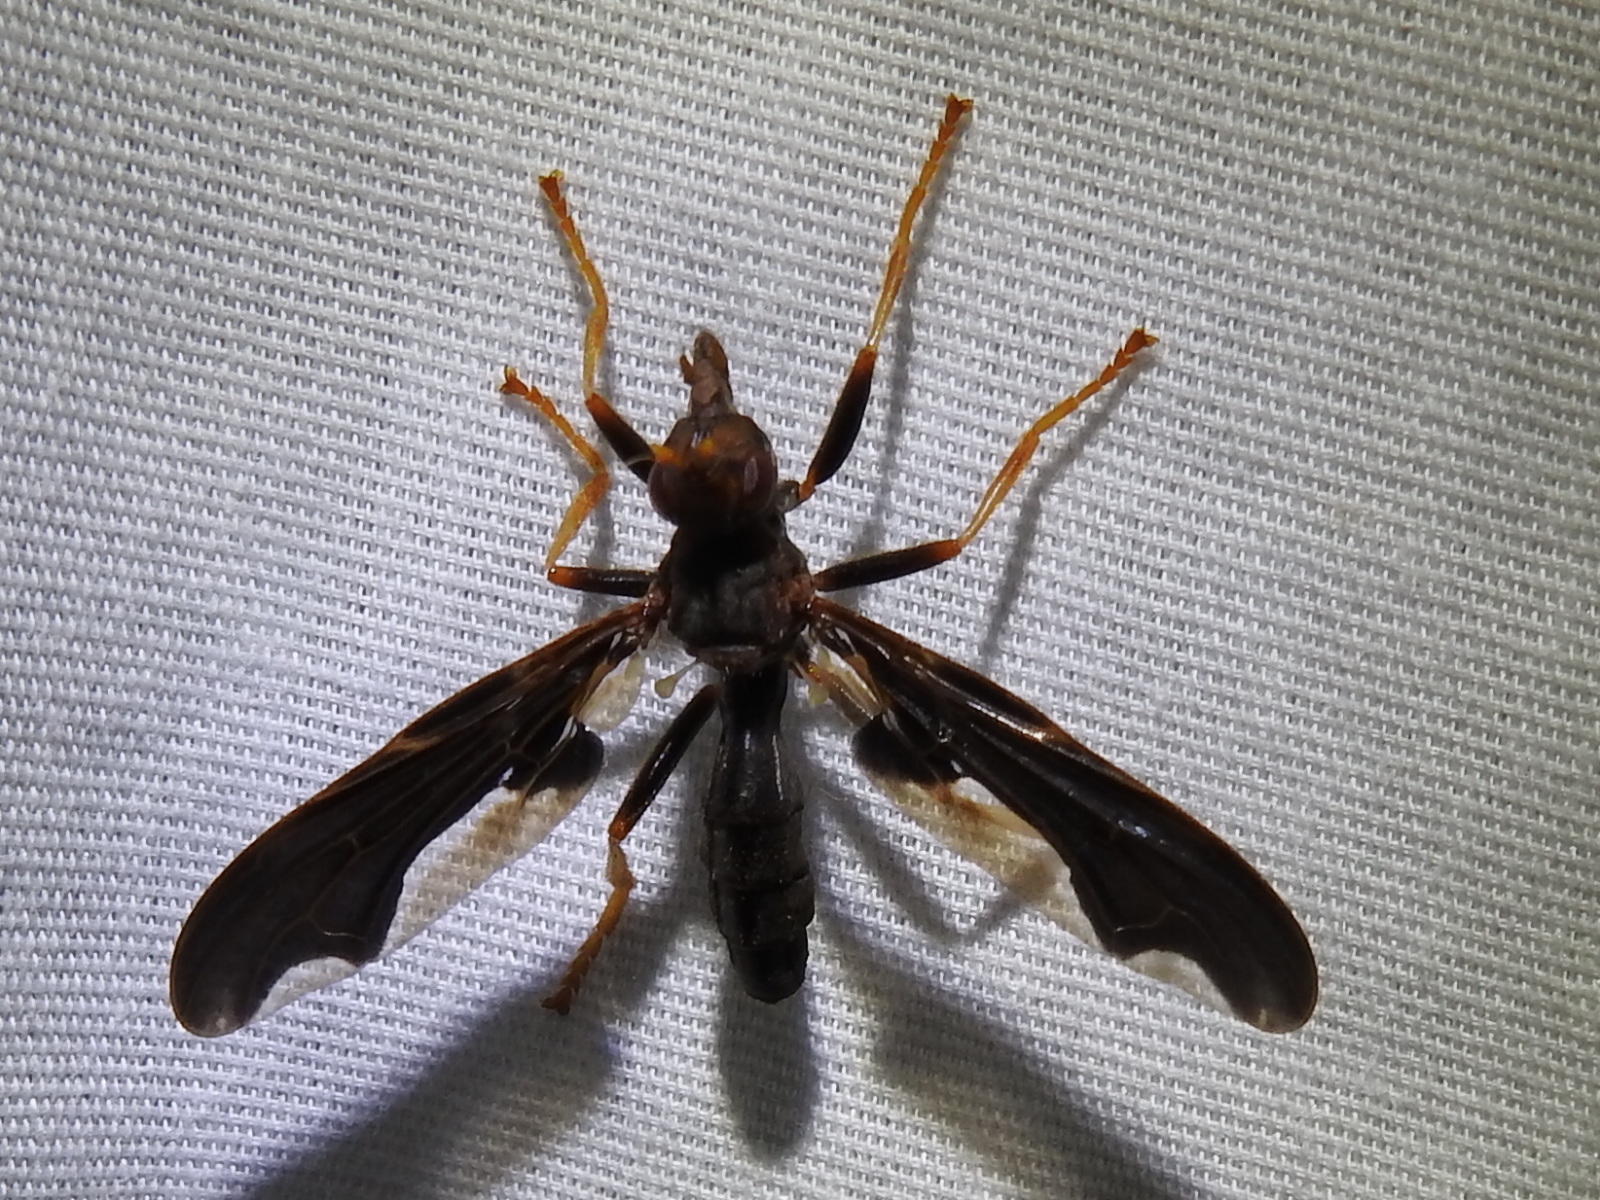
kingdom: Animalia
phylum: Arthropoda
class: Insecta
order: Diptera
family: Pyrgotidae
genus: Pyrgota
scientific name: Pyrgota undata
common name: Waved light fly
